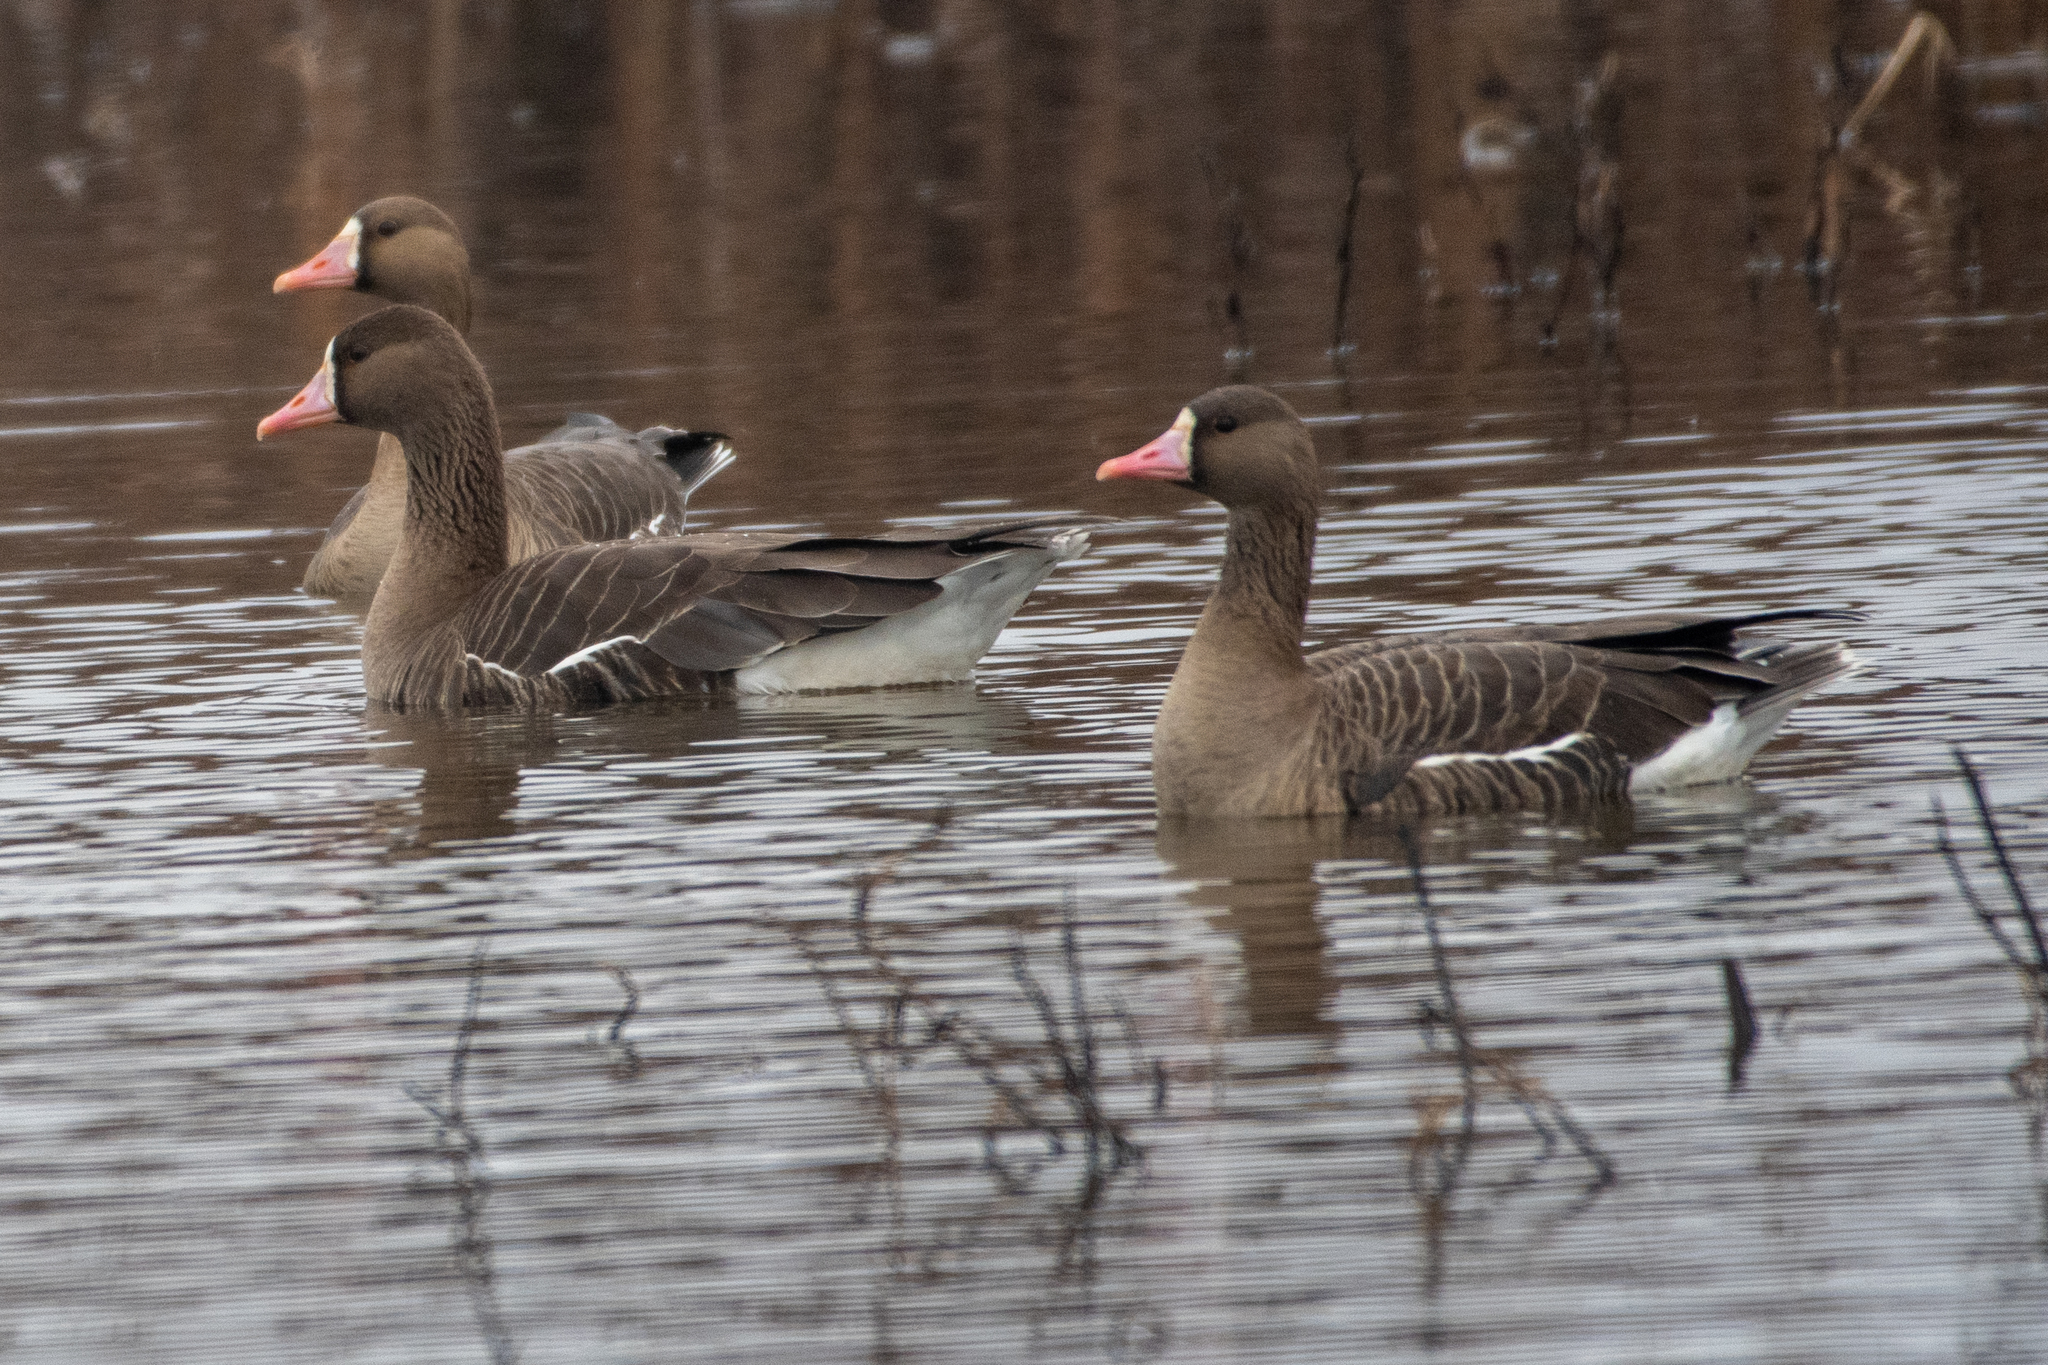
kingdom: Animalia
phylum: Chordata
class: Aves
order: Anseriformes
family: Anatidae
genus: Anser
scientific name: Anser albifrons
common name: Greater white-fronted goose
